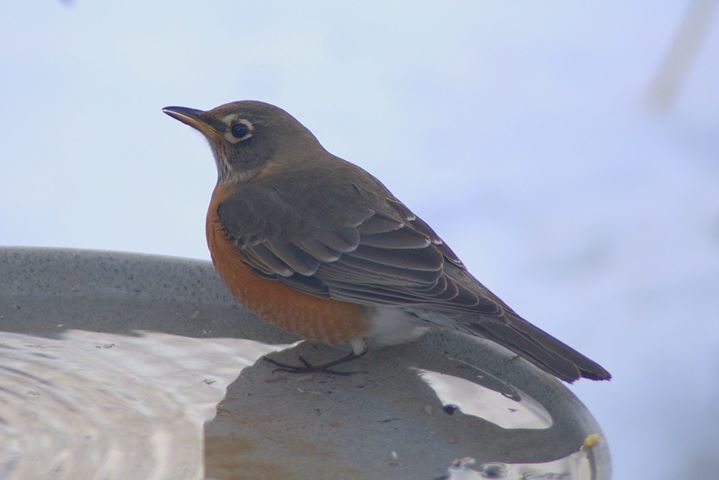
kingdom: Animalia
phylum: Chordata
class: Aves
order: Passeriformes
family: Turdidae
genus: Turdus
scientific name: Turdus migratorius
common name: American robin
